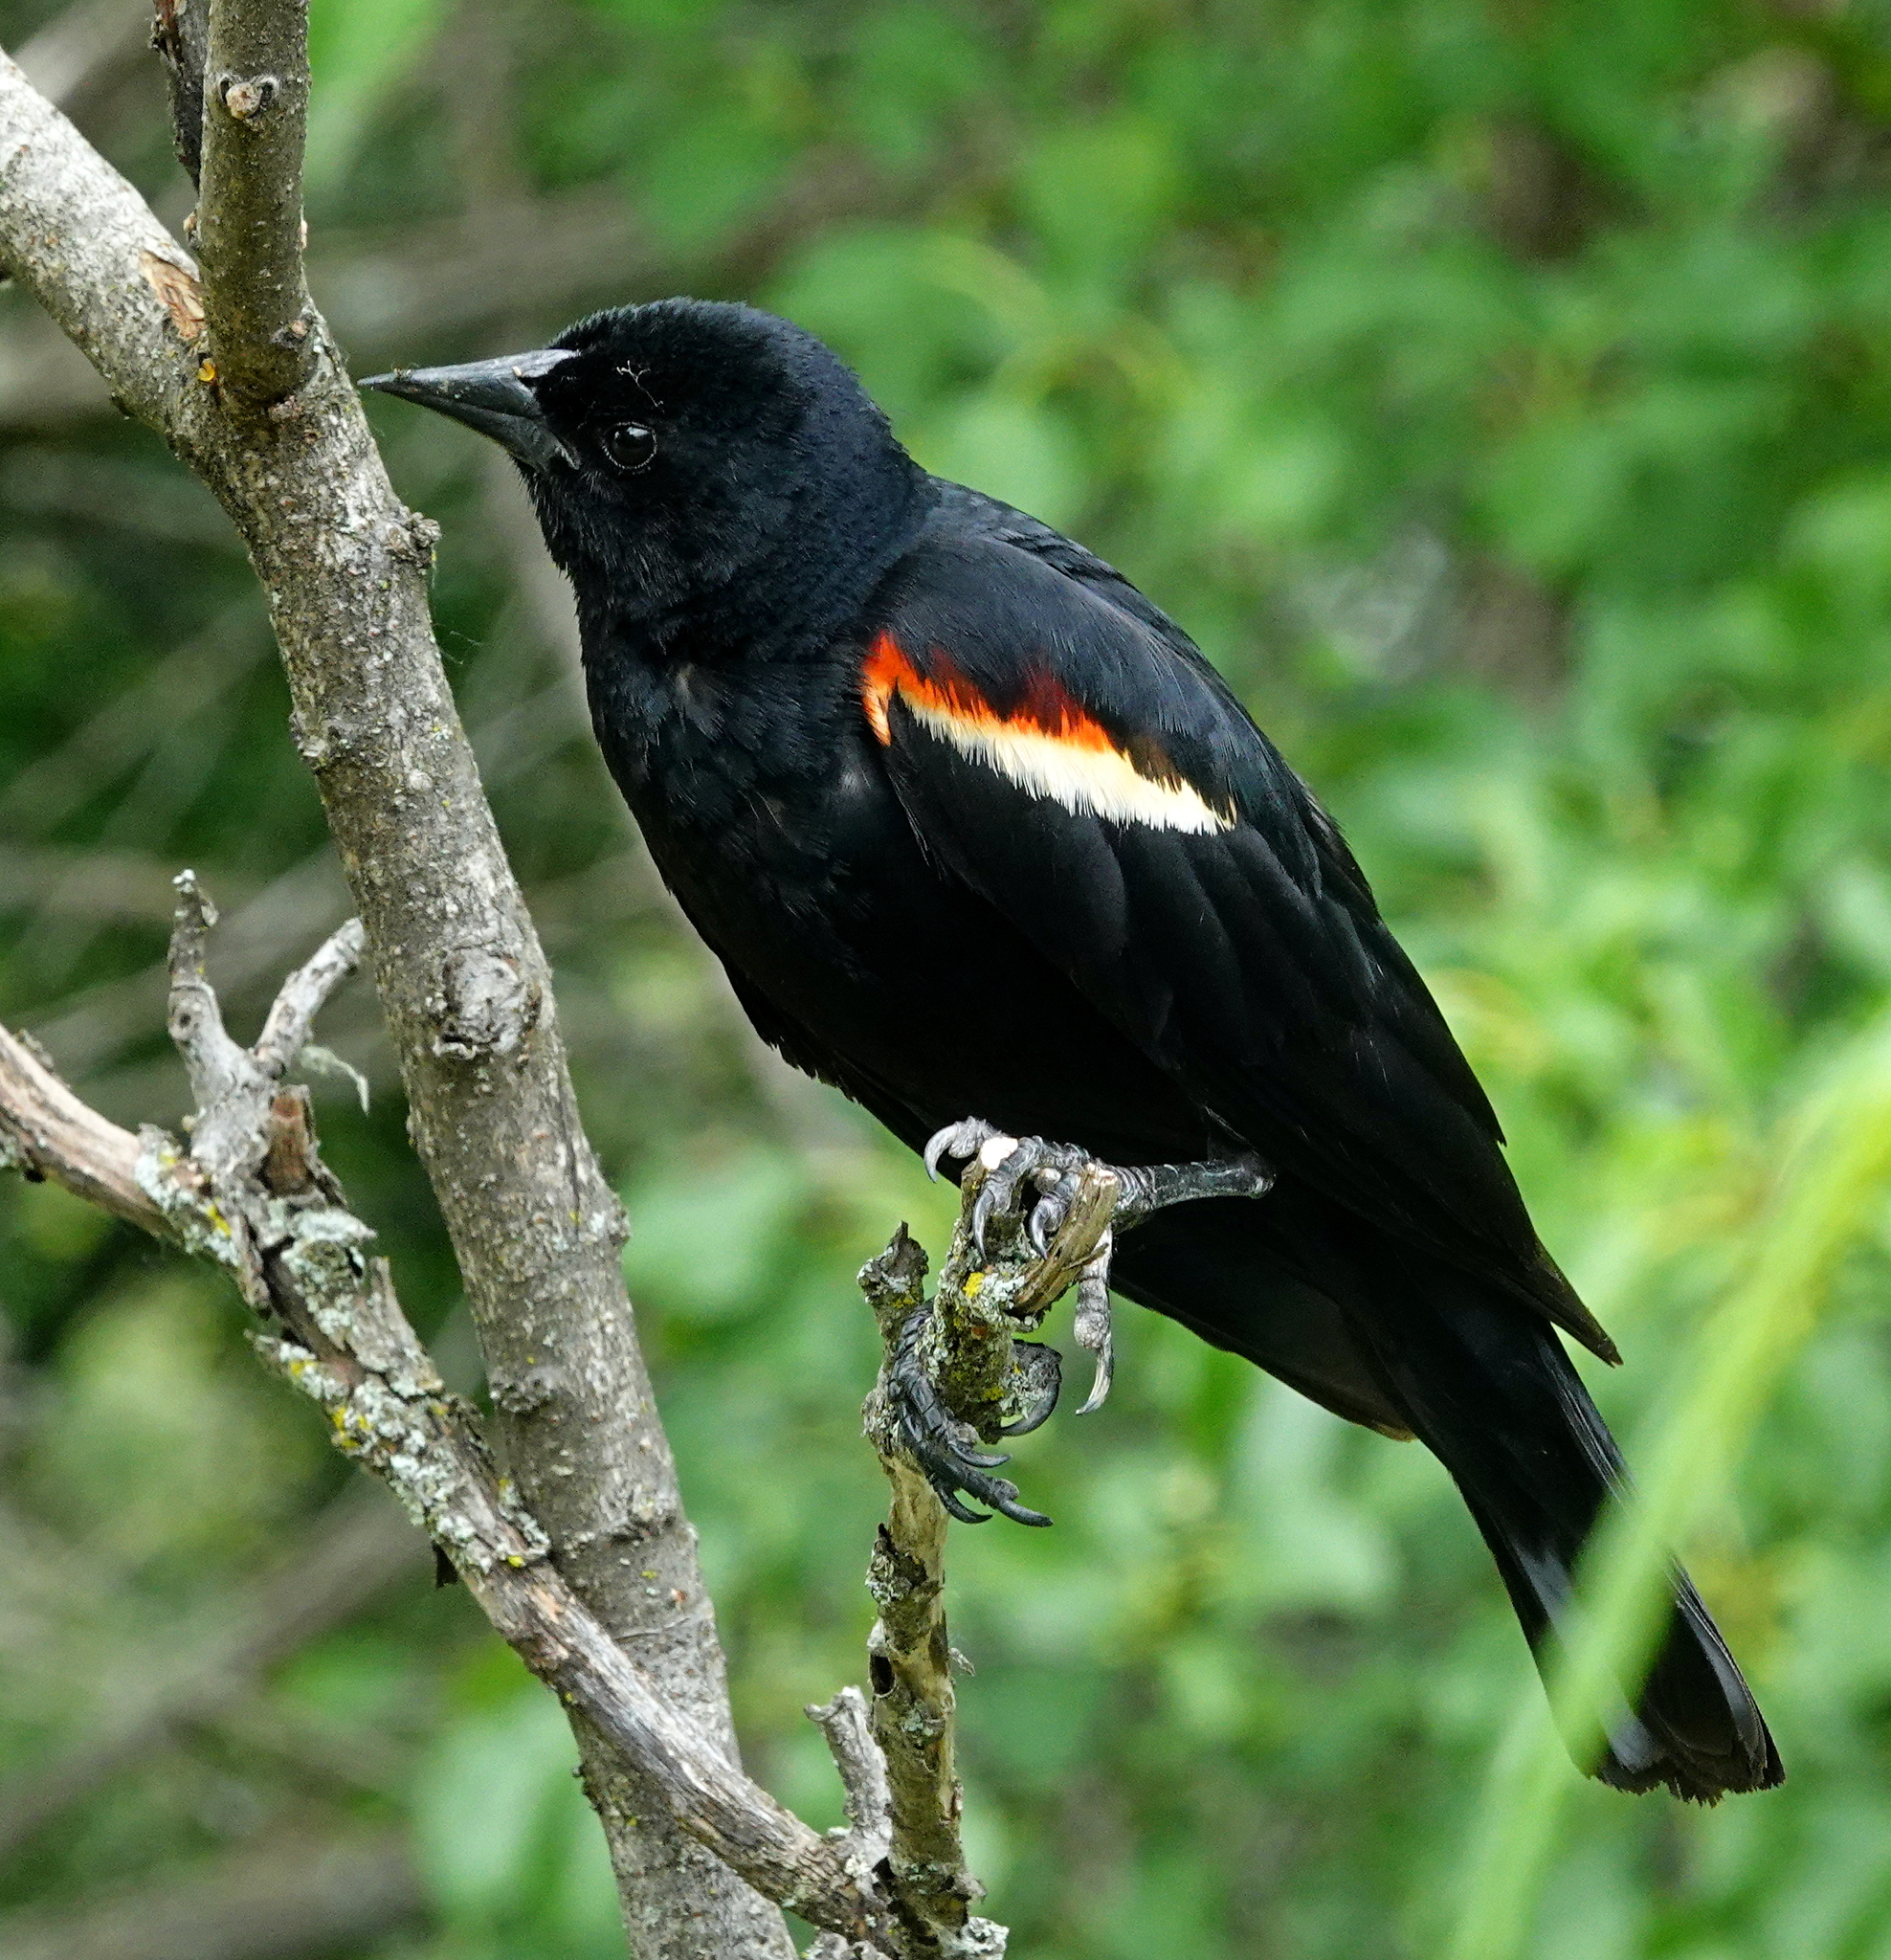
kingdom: Animalia
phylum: Chordata
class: Aves
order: Passeriformes
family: Icteridae
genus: Agelaius
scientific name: Agelaius phoeniceus
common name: Red-winged blackbird
